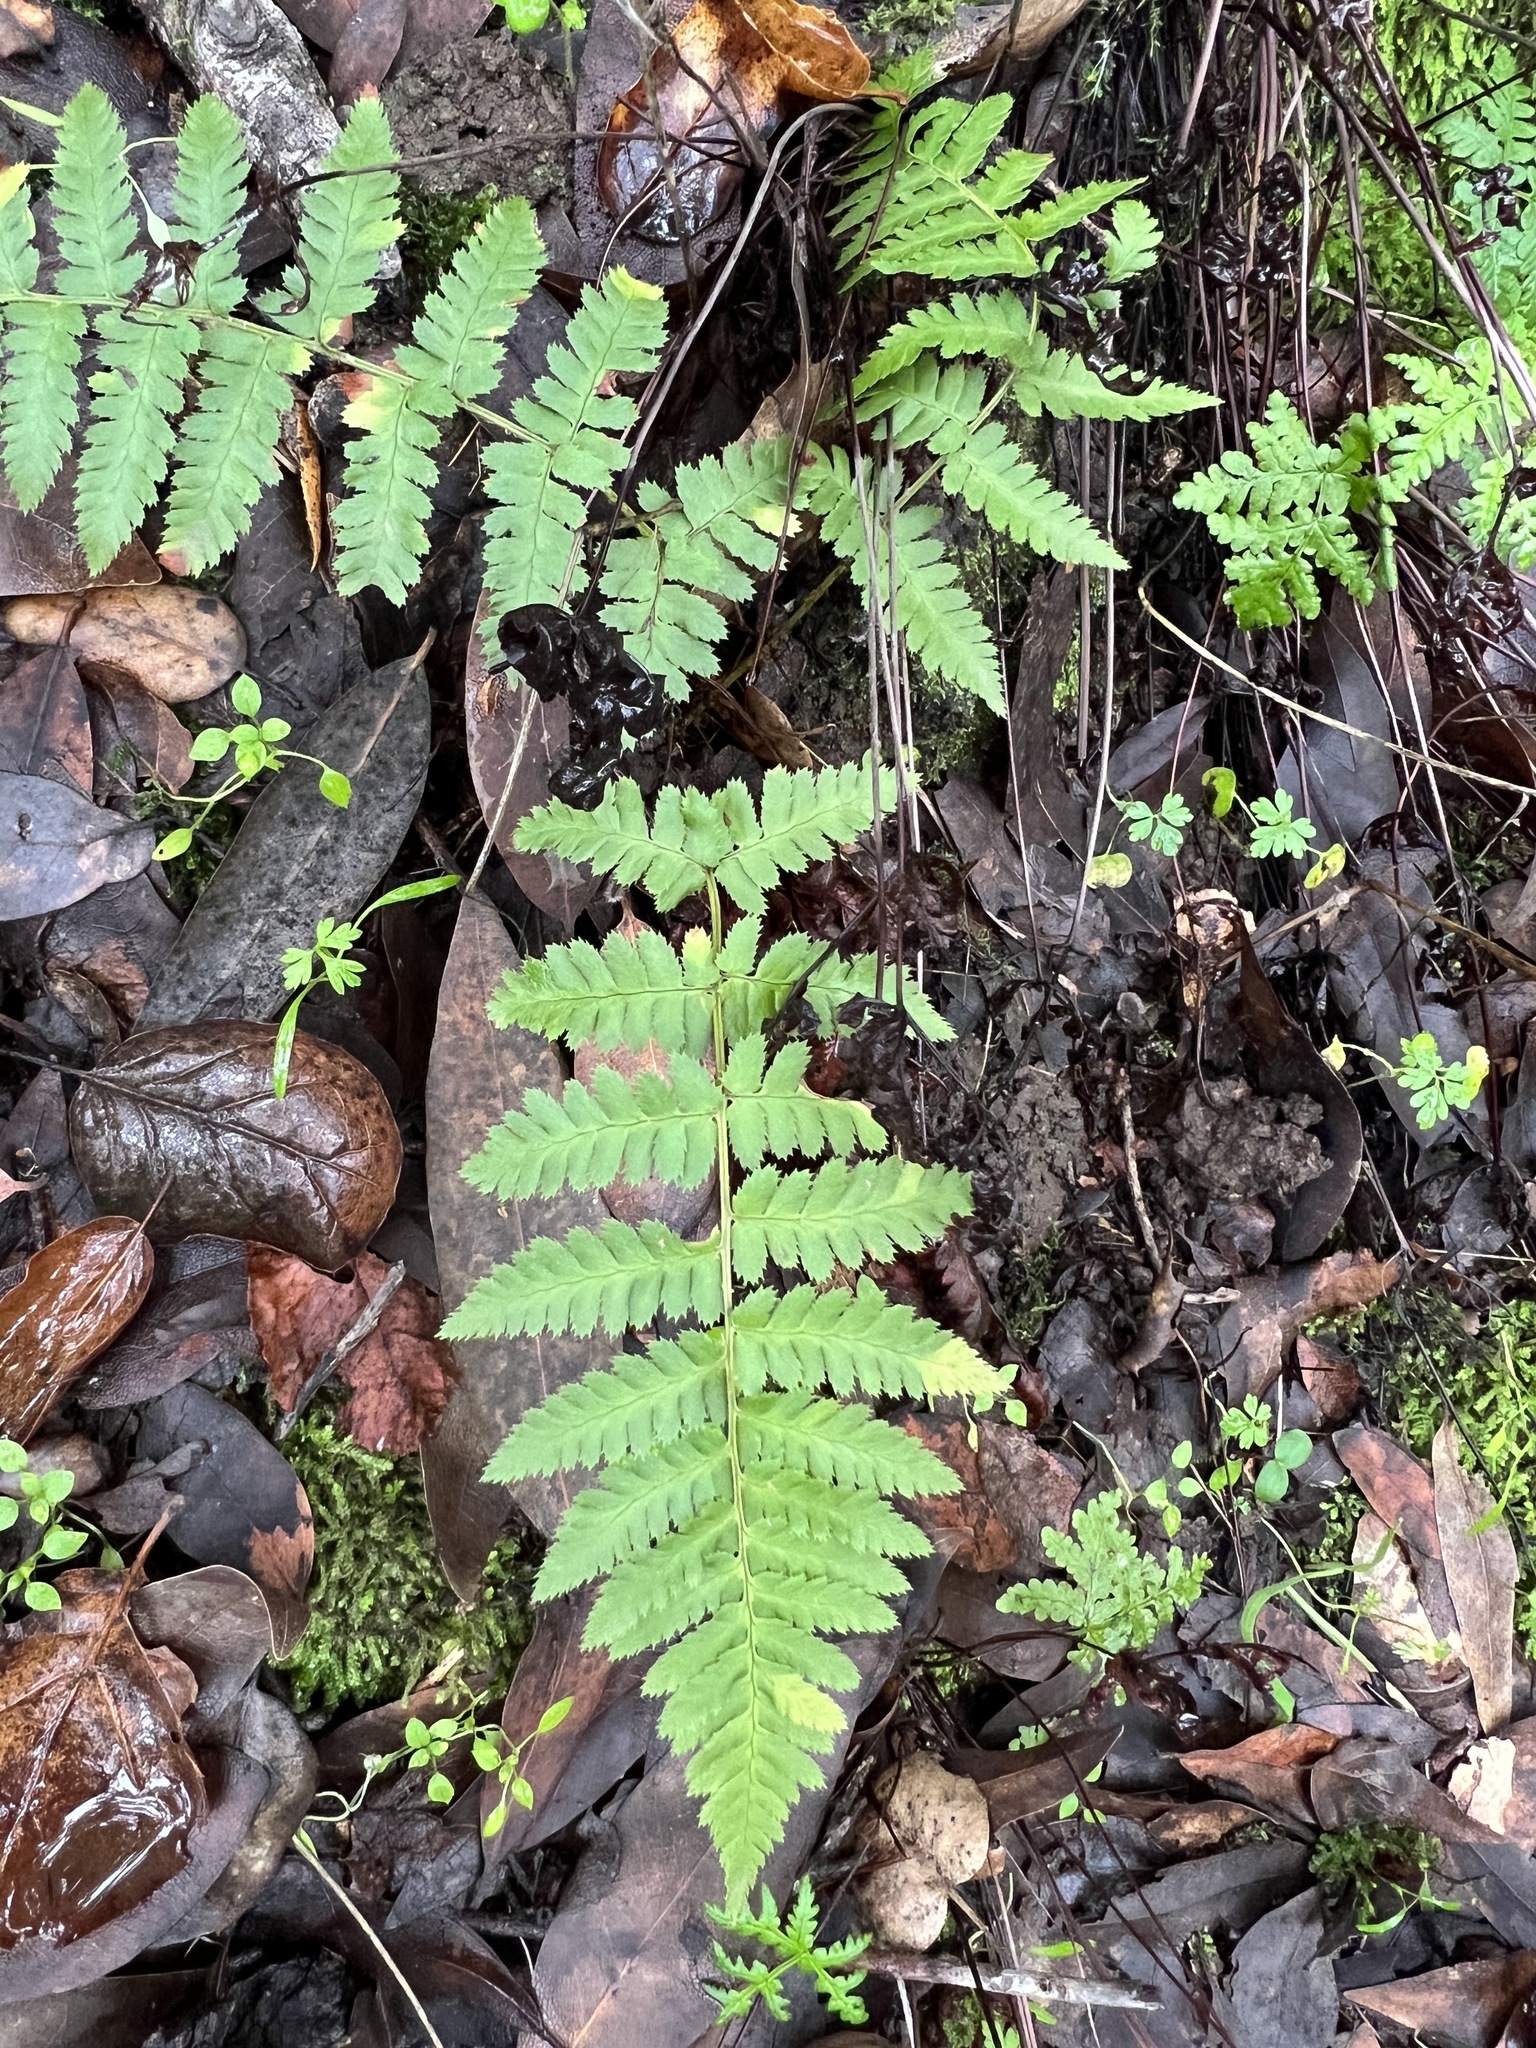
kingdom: Plantae
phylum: Tracheophyta
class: Polypodiopsida
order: Polypodiales
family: Dryopteridaceae
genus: Dryopteris
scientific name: Dryopteris arguta
